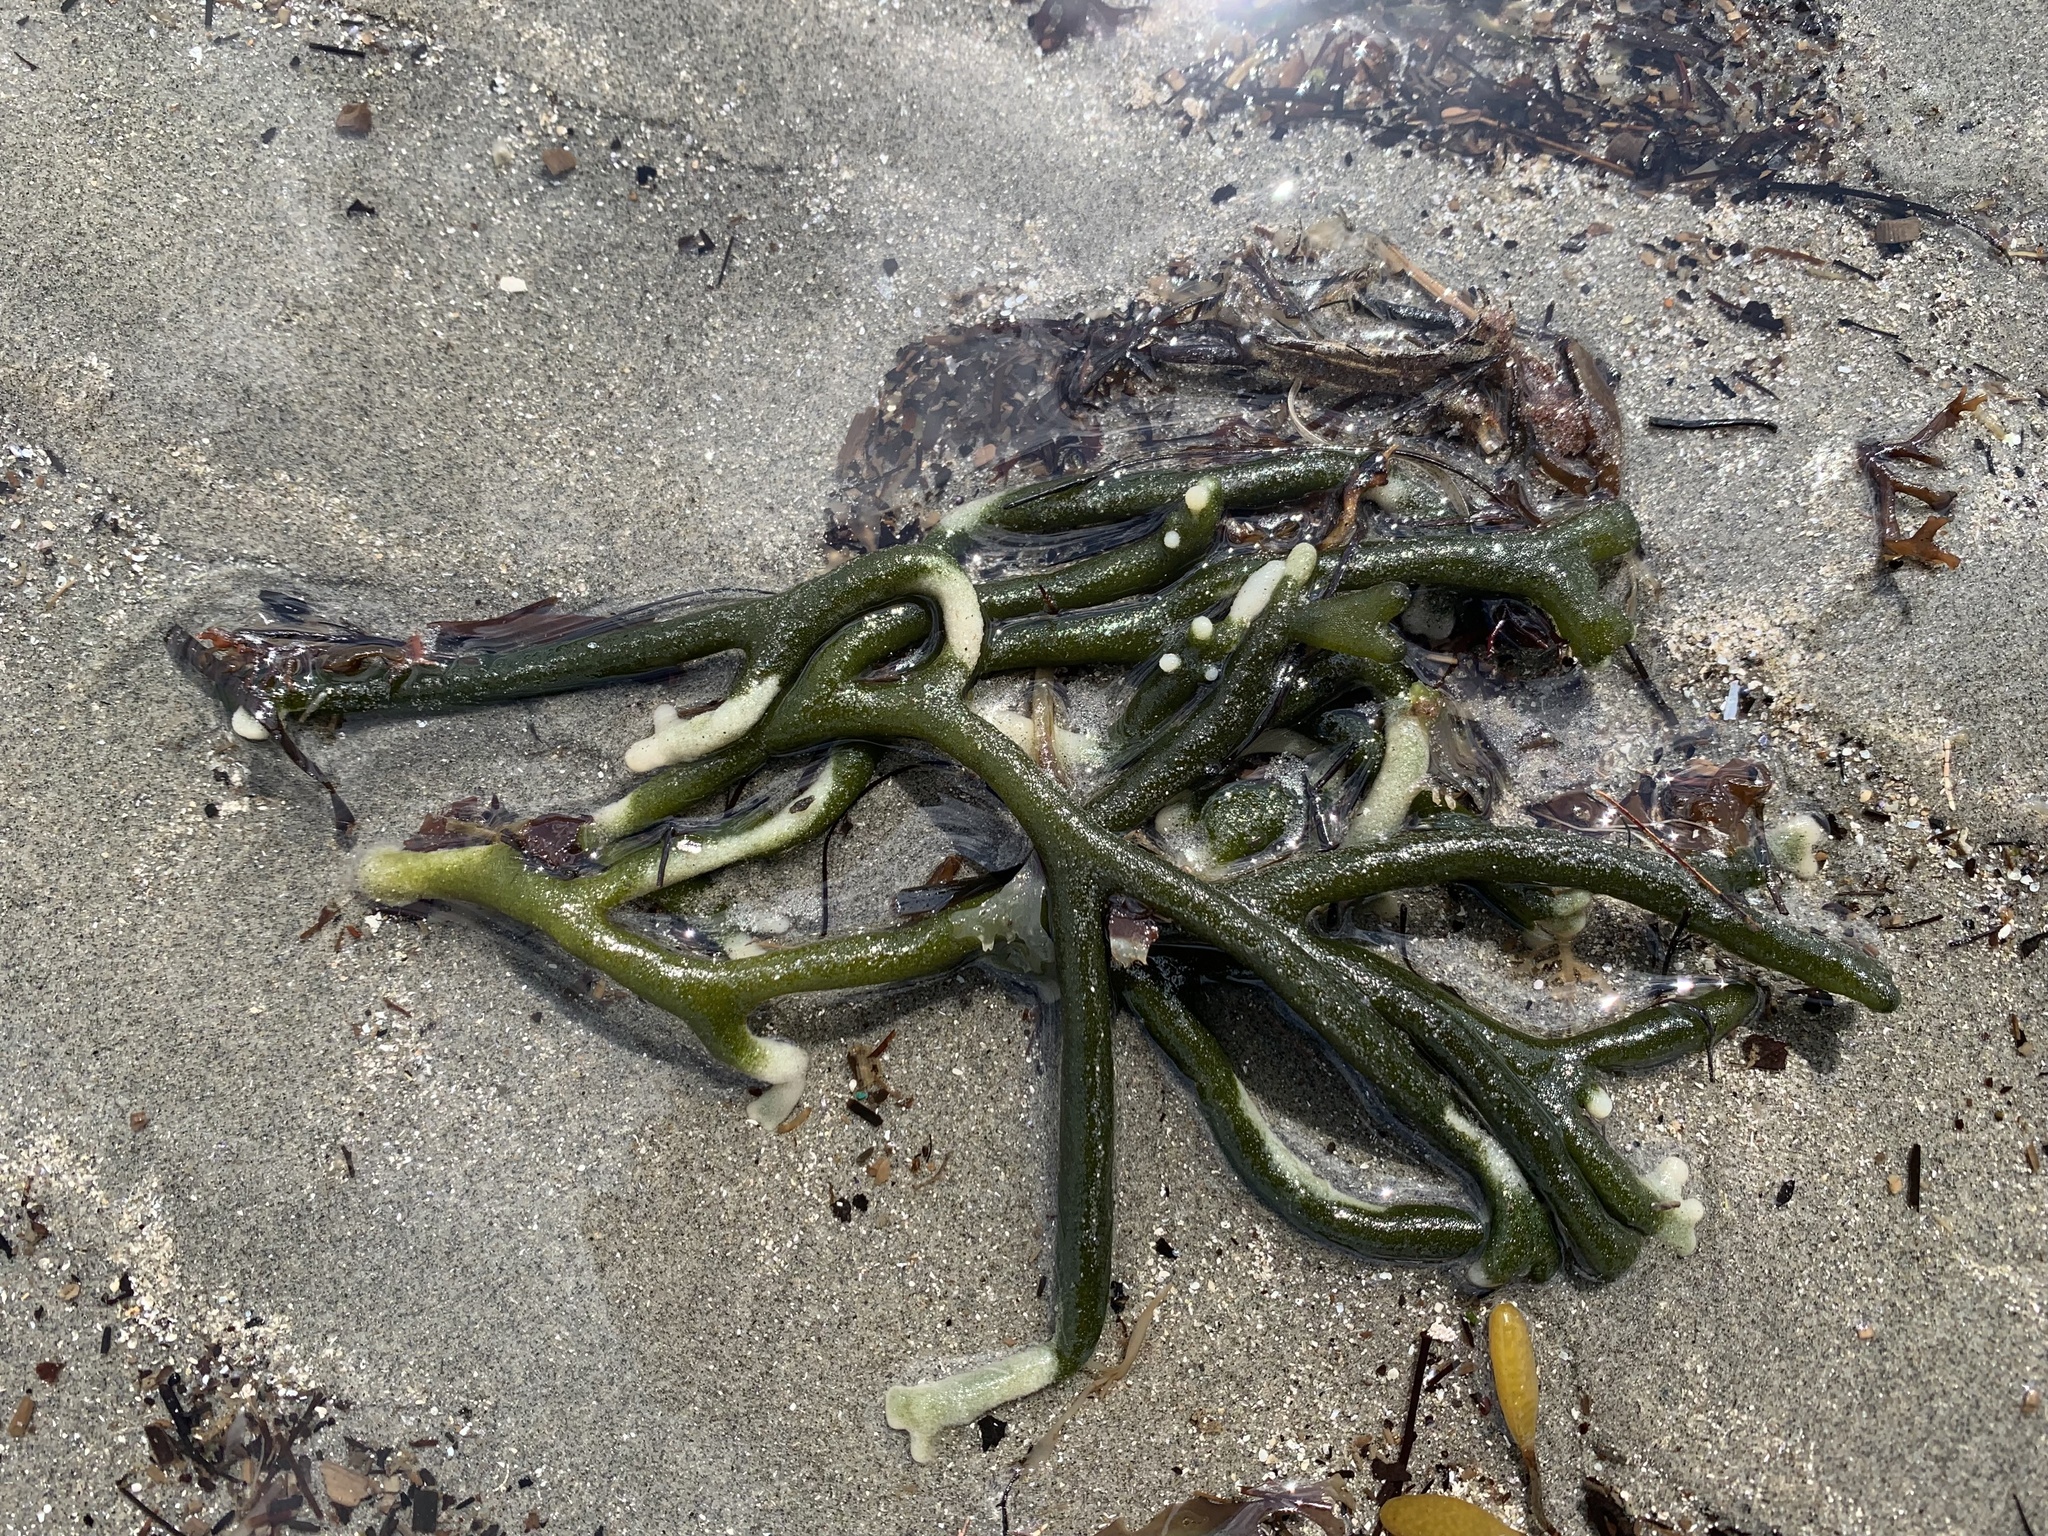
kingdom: Plantae
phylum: Chlorophyta
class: Ulvophyceae
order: Bryopsidales
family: Codiaceae
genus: Codium
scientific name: Codium fragile
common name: Dead man's fingers
